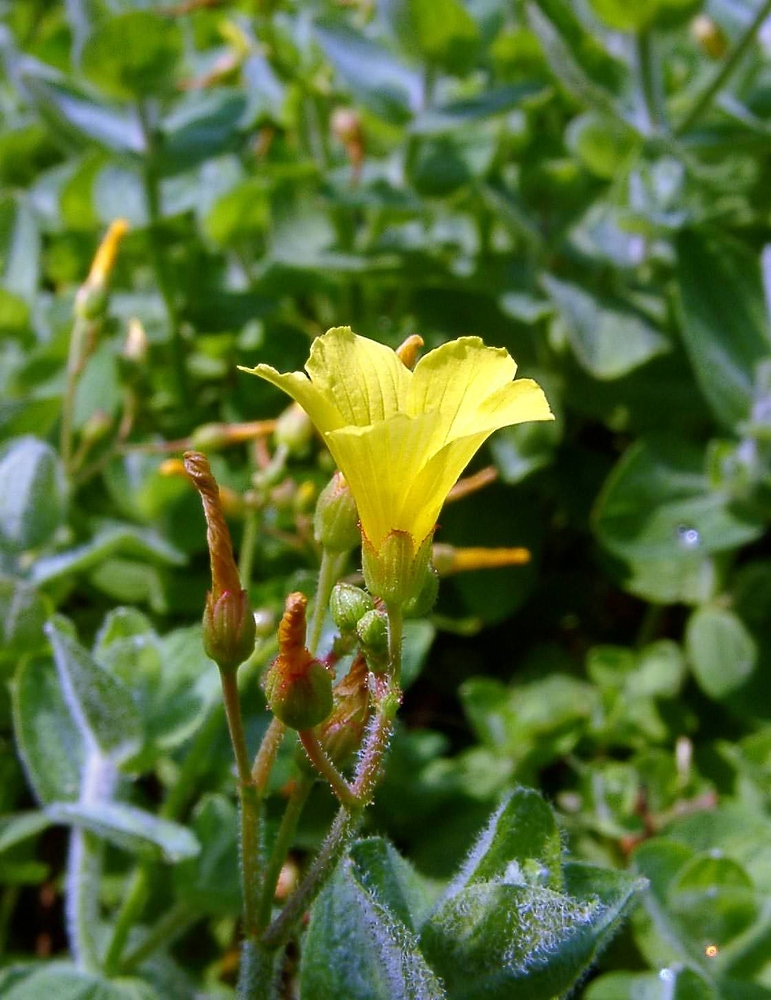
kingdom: Plantae
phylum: Tracheophyta
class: Magnoliopsida
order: Malpighiales
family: Hypericaceae
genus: Hypericum
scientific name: Hypericum elodes
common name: Marsh st. john's-wort
